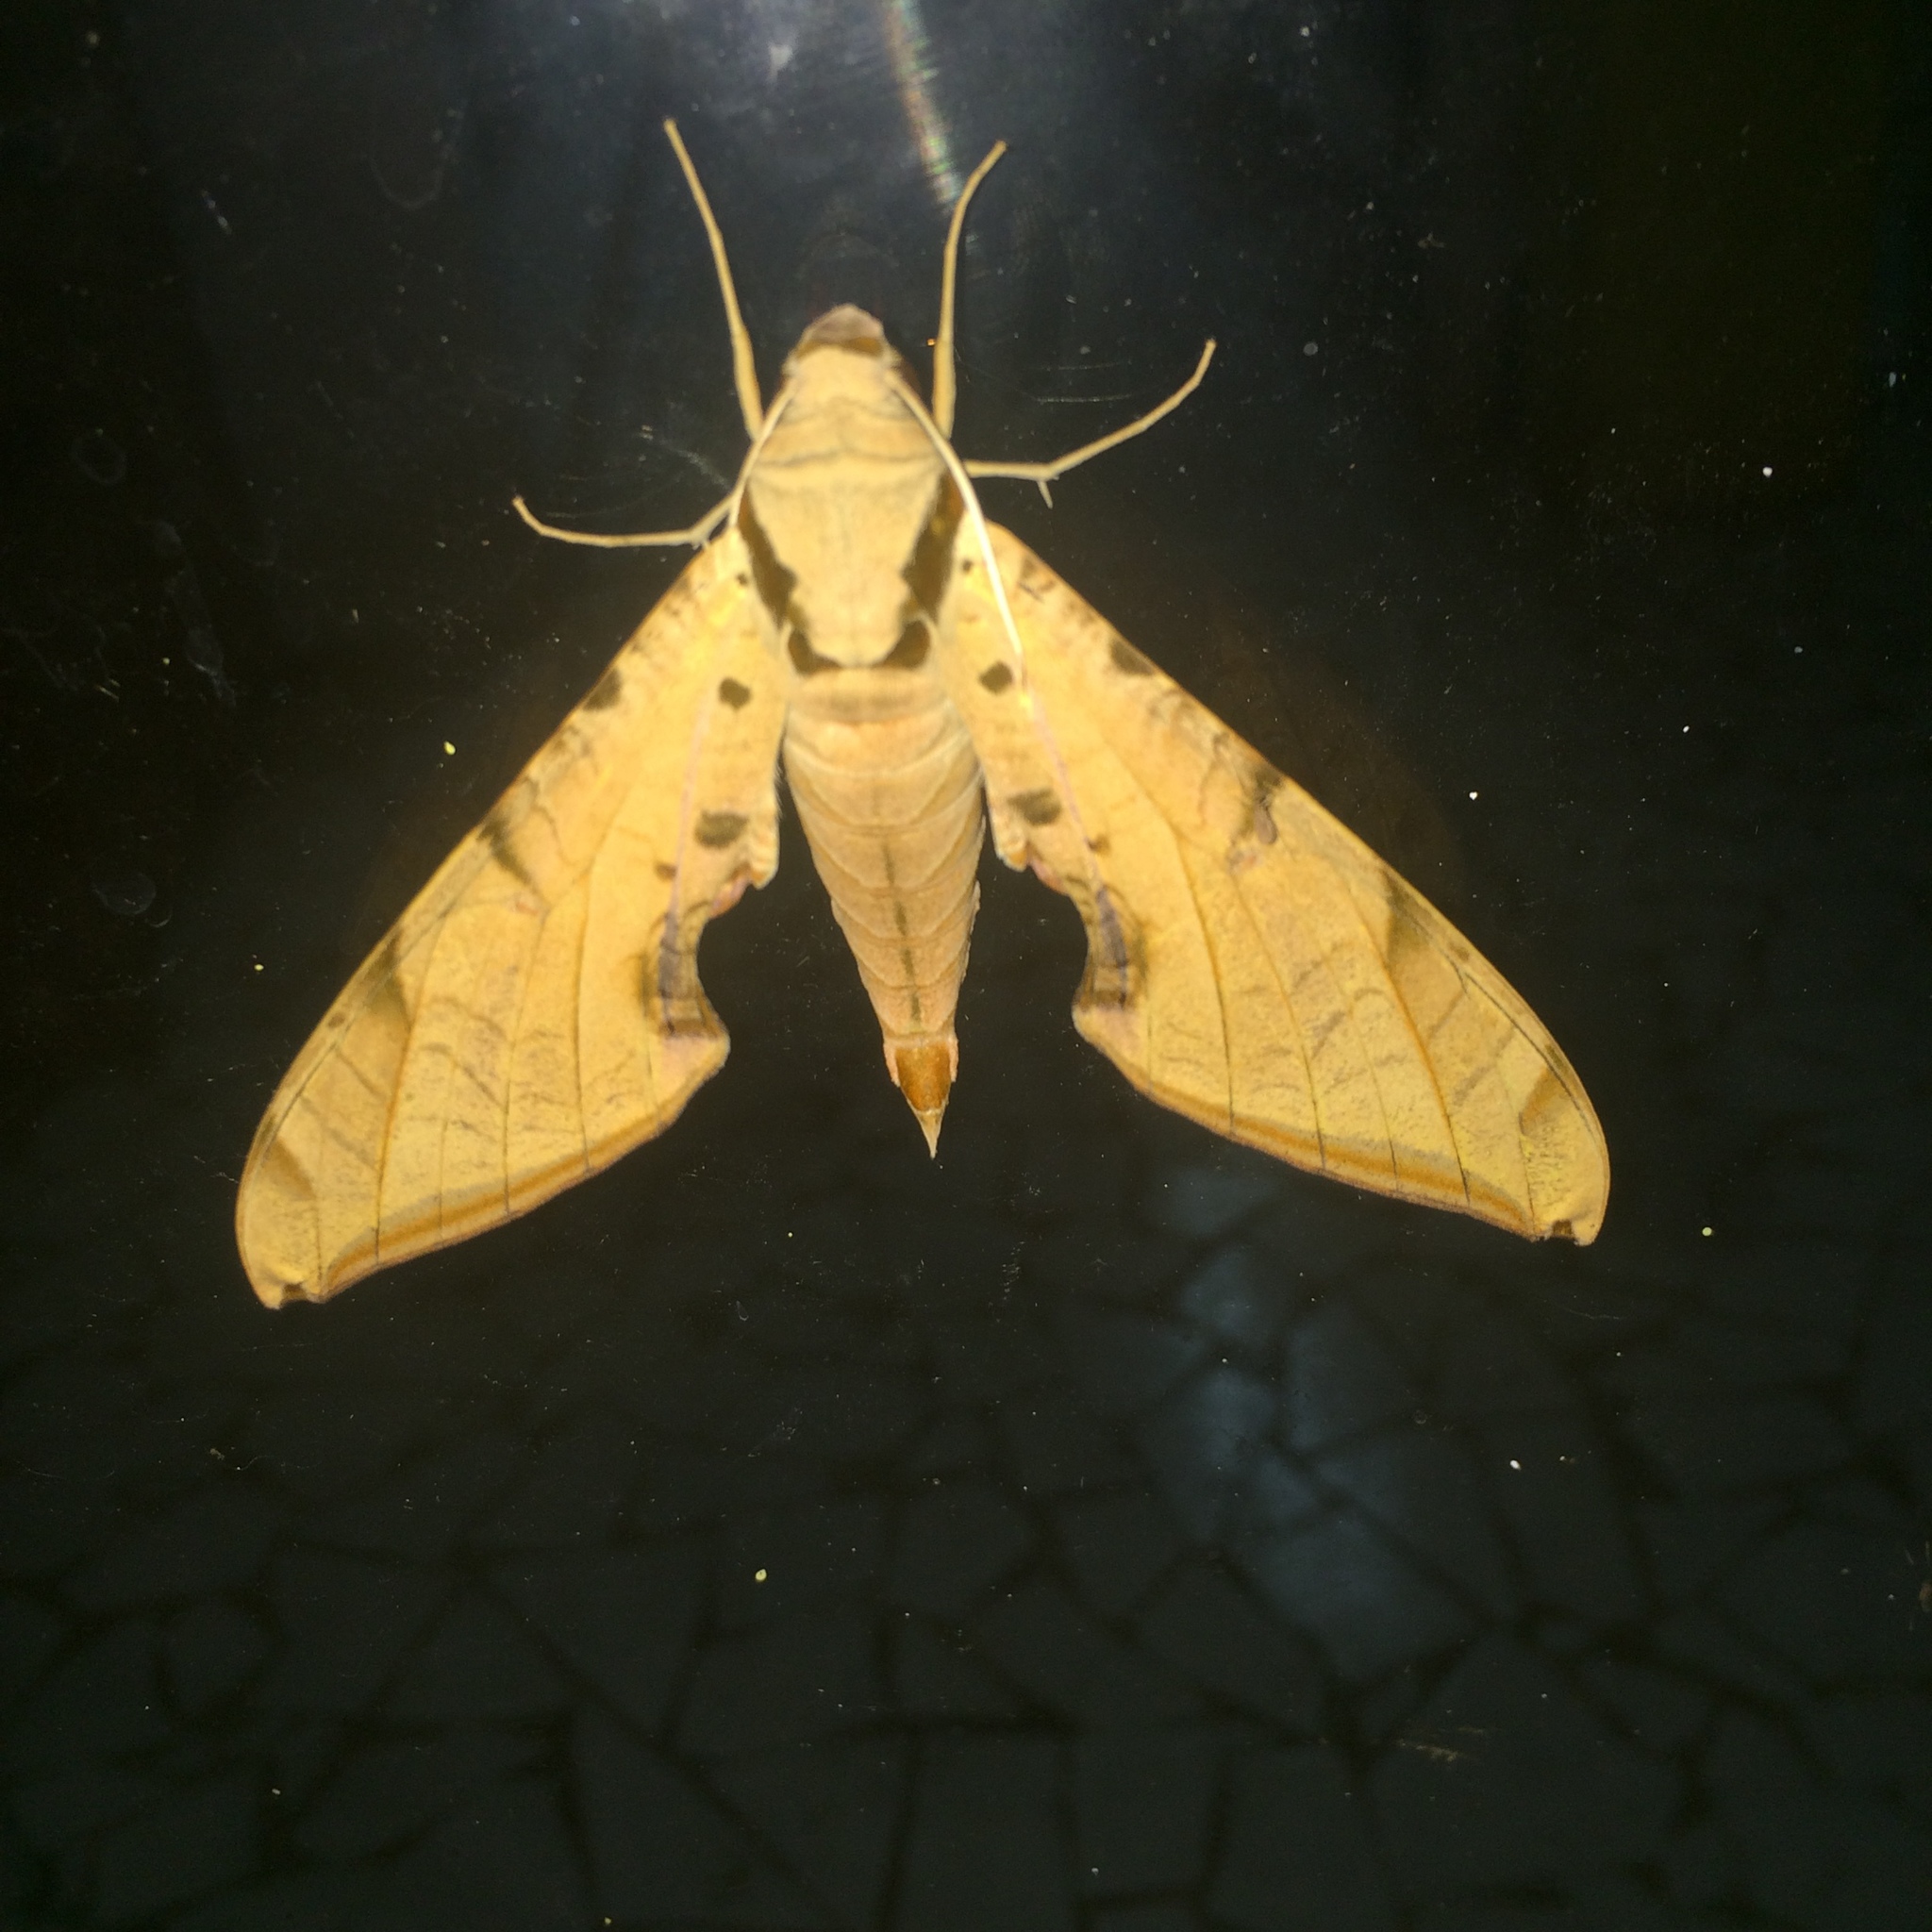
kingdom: Animalia
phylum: Arthropoda
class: Insecta
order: Lepidoptera
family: Sphingidae
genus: Protambulyx
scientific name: Protambulyx strigilis
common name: Streaked sphinx
